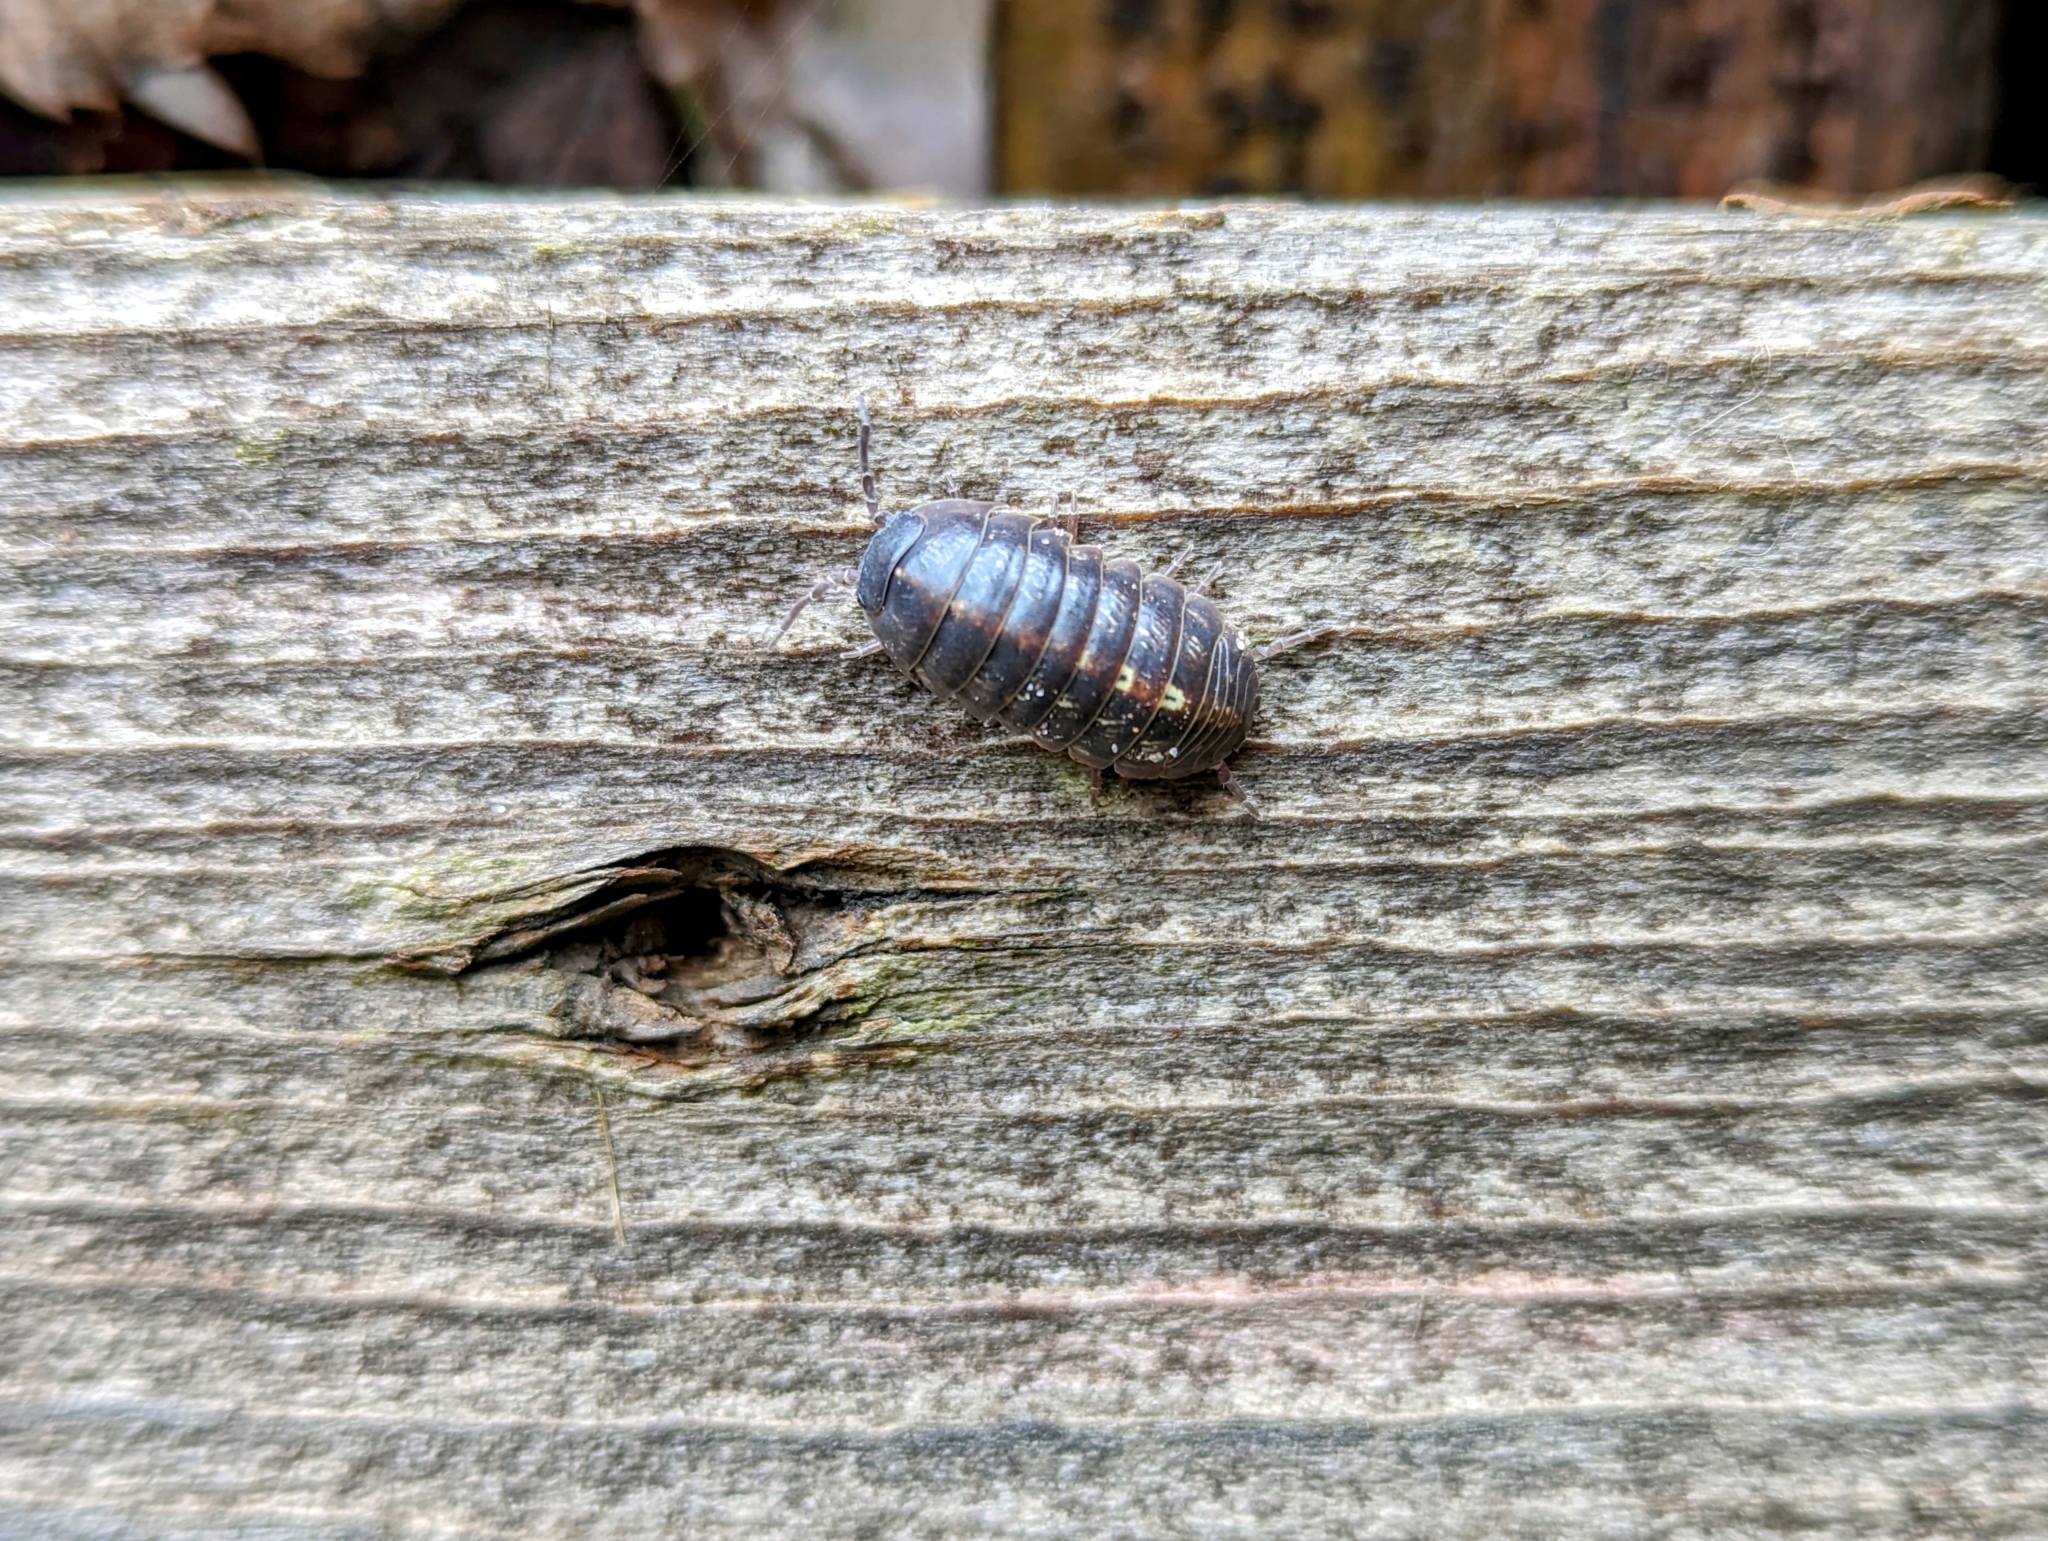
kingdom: Animalia
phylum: Arthropoda
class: Malacostraca
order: Isopoda
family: Armadillidiidae
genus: Armadillidium
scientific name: Armadillidium vulgare
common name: Common pill woodlouse
